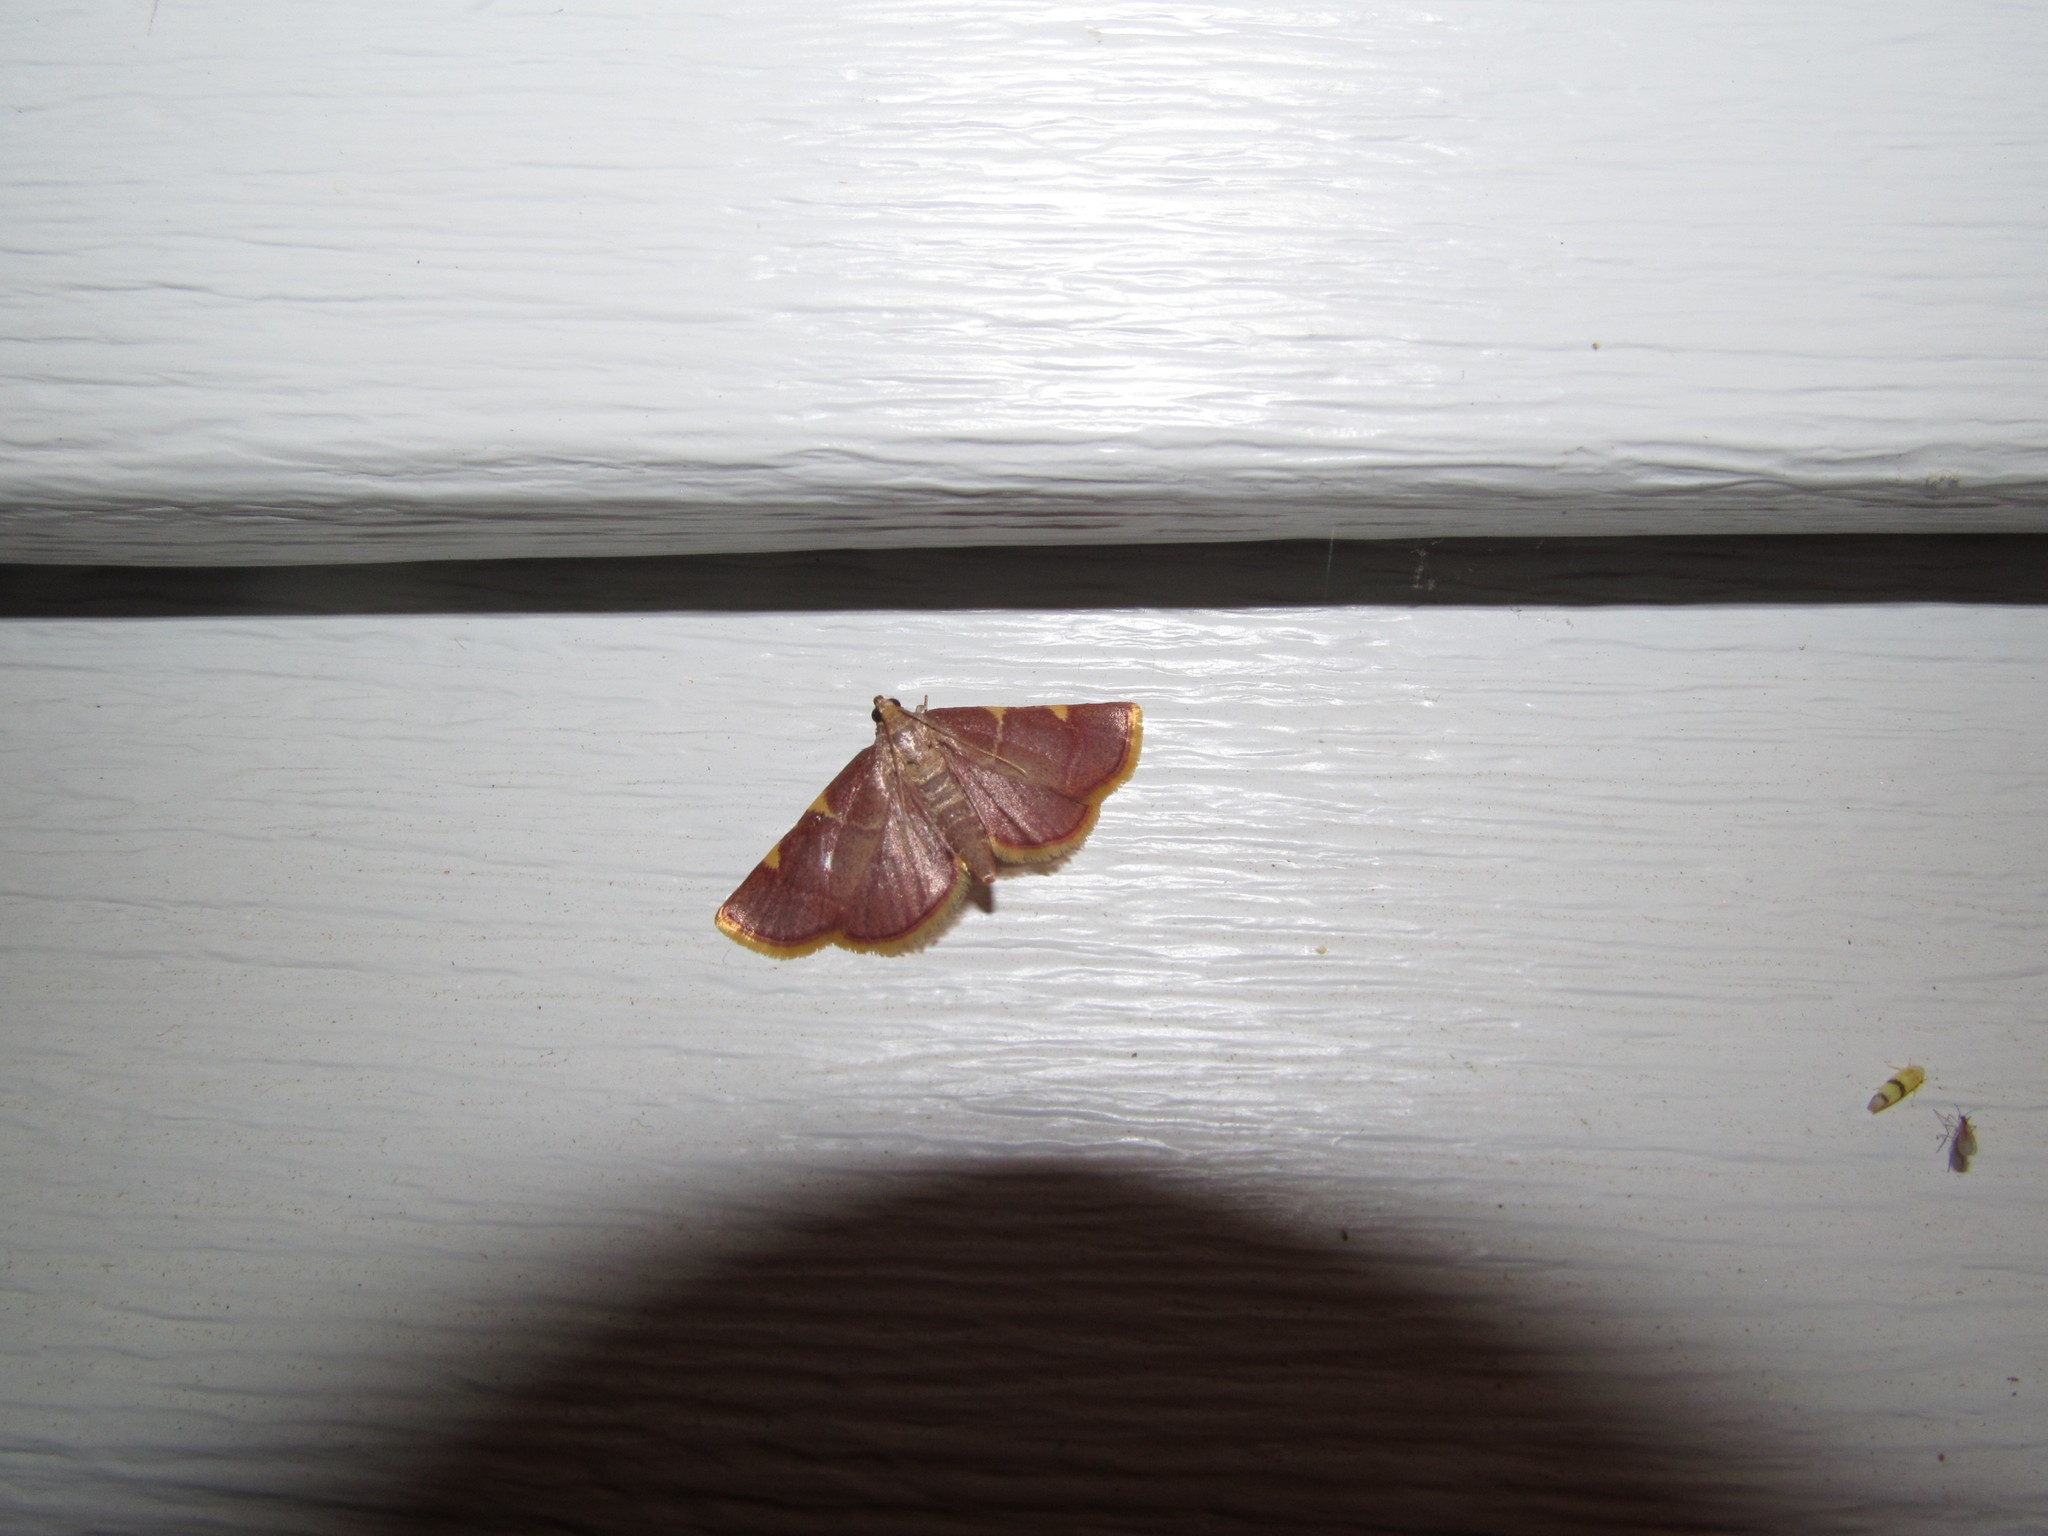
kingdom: Animalia
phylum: Arthropoda
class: Insecta
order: Lepidoptera
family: Pyralidae
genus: Hypsopygia
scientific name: Hypsopygia olinalis
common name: Yellow-fringed dolichomia moth
